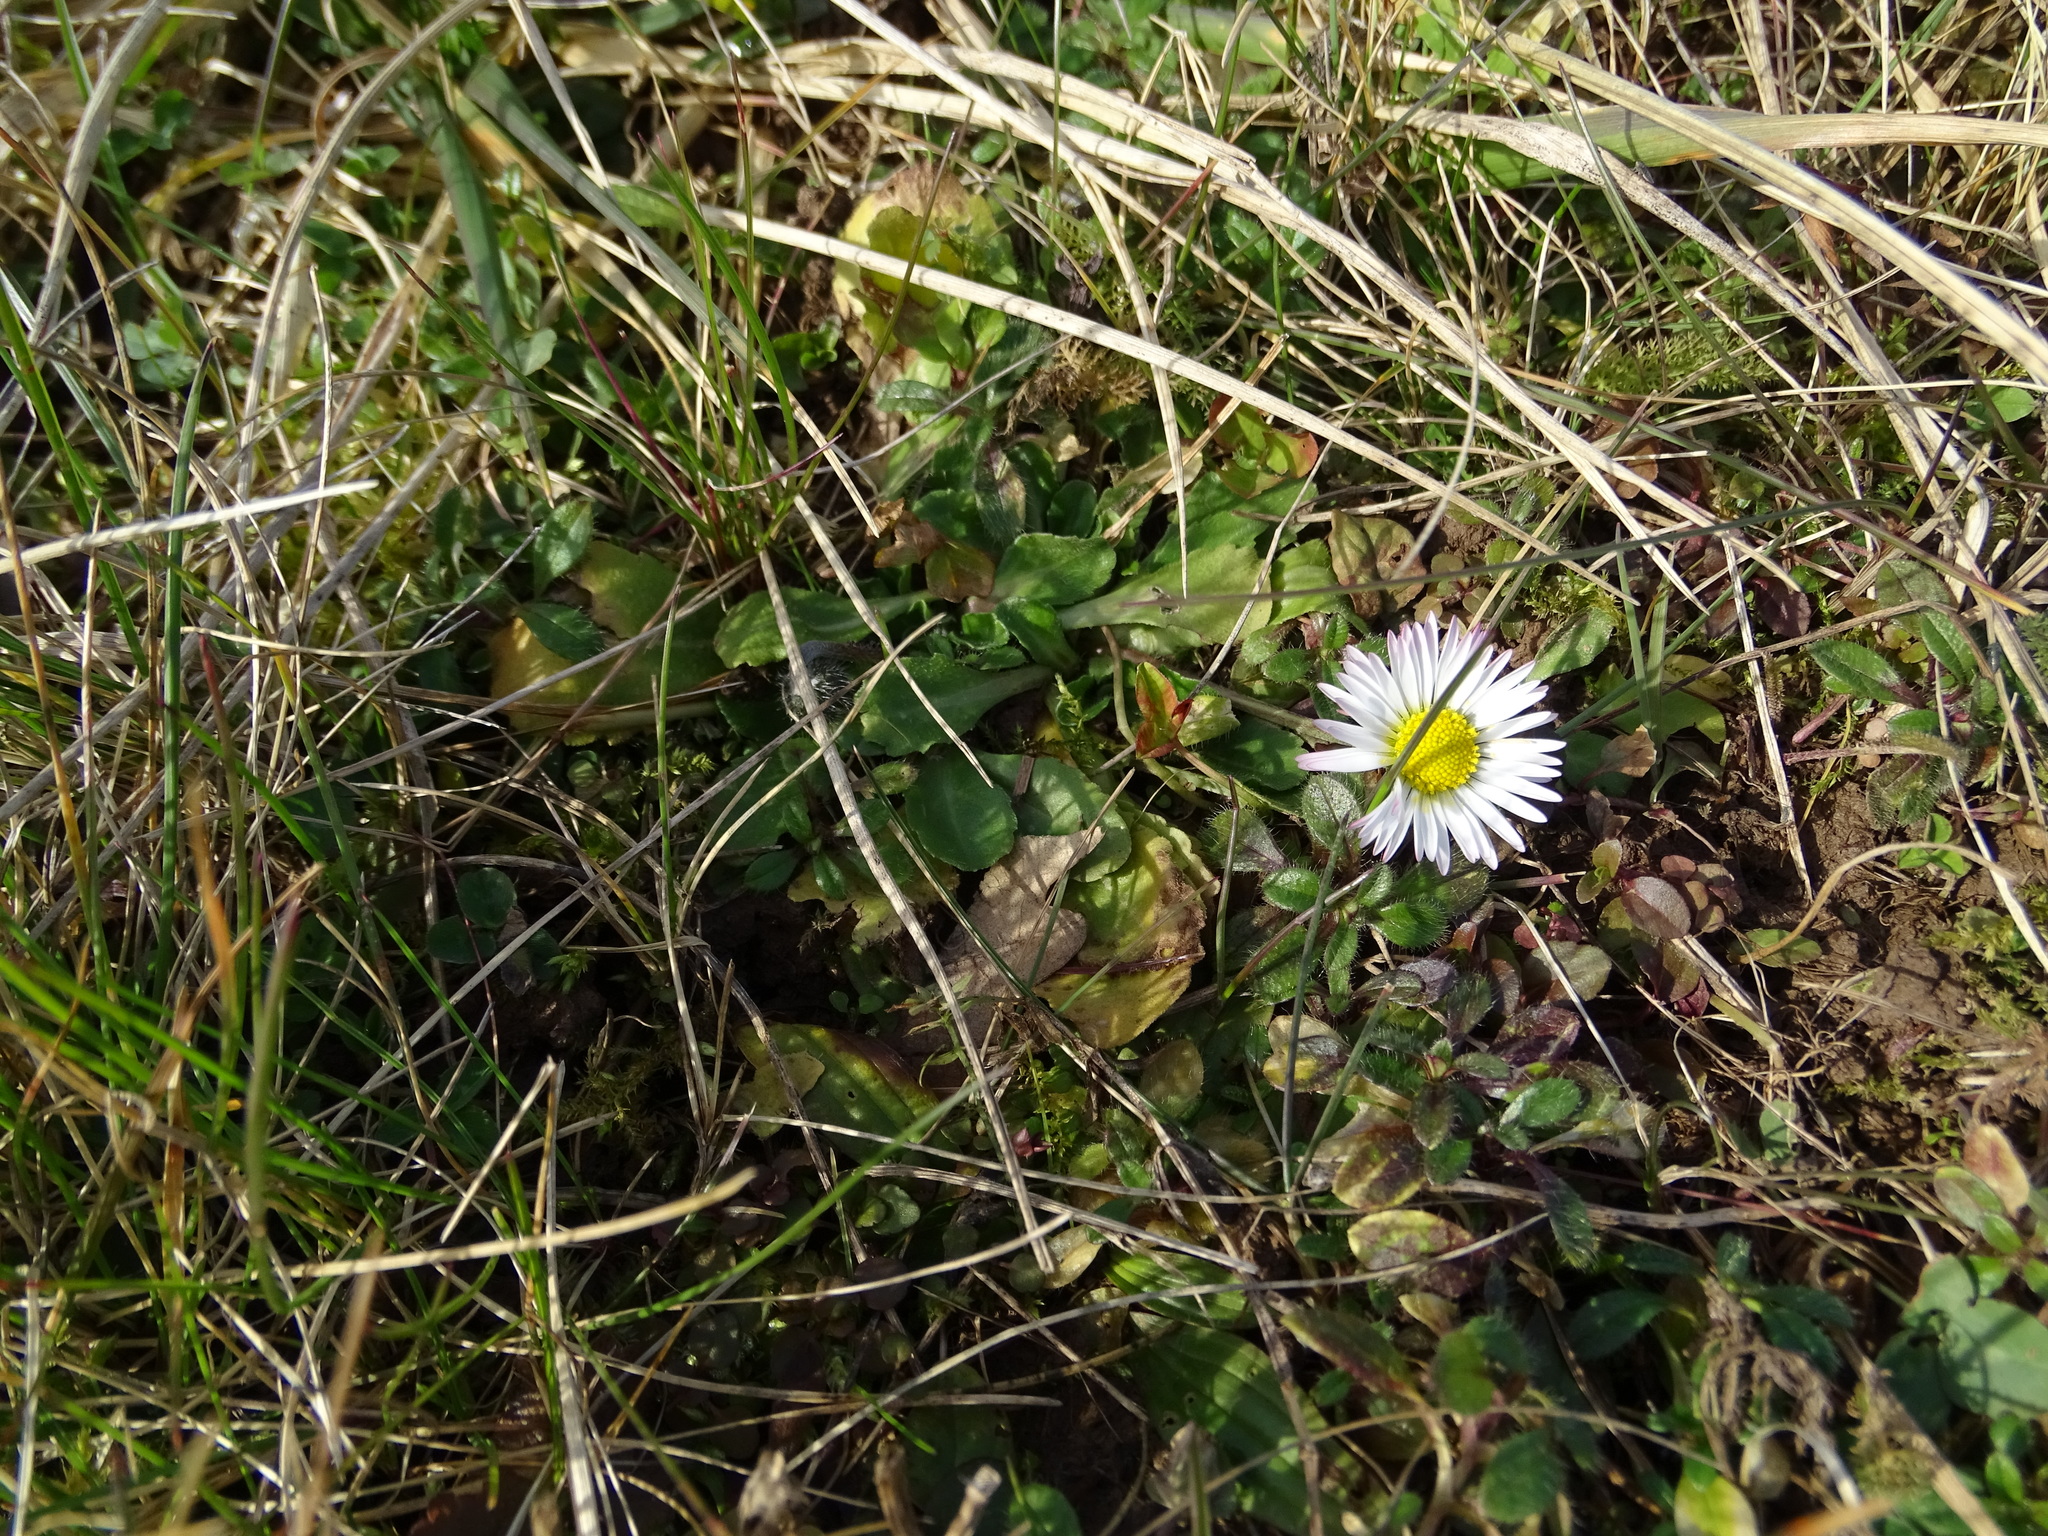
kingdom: Plantae
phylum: Tracheophyta
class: Magnoliopsida
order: Asterales
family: Asteraceae
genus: Bellis
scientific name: Bellis perennis
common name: Lawndaisy
